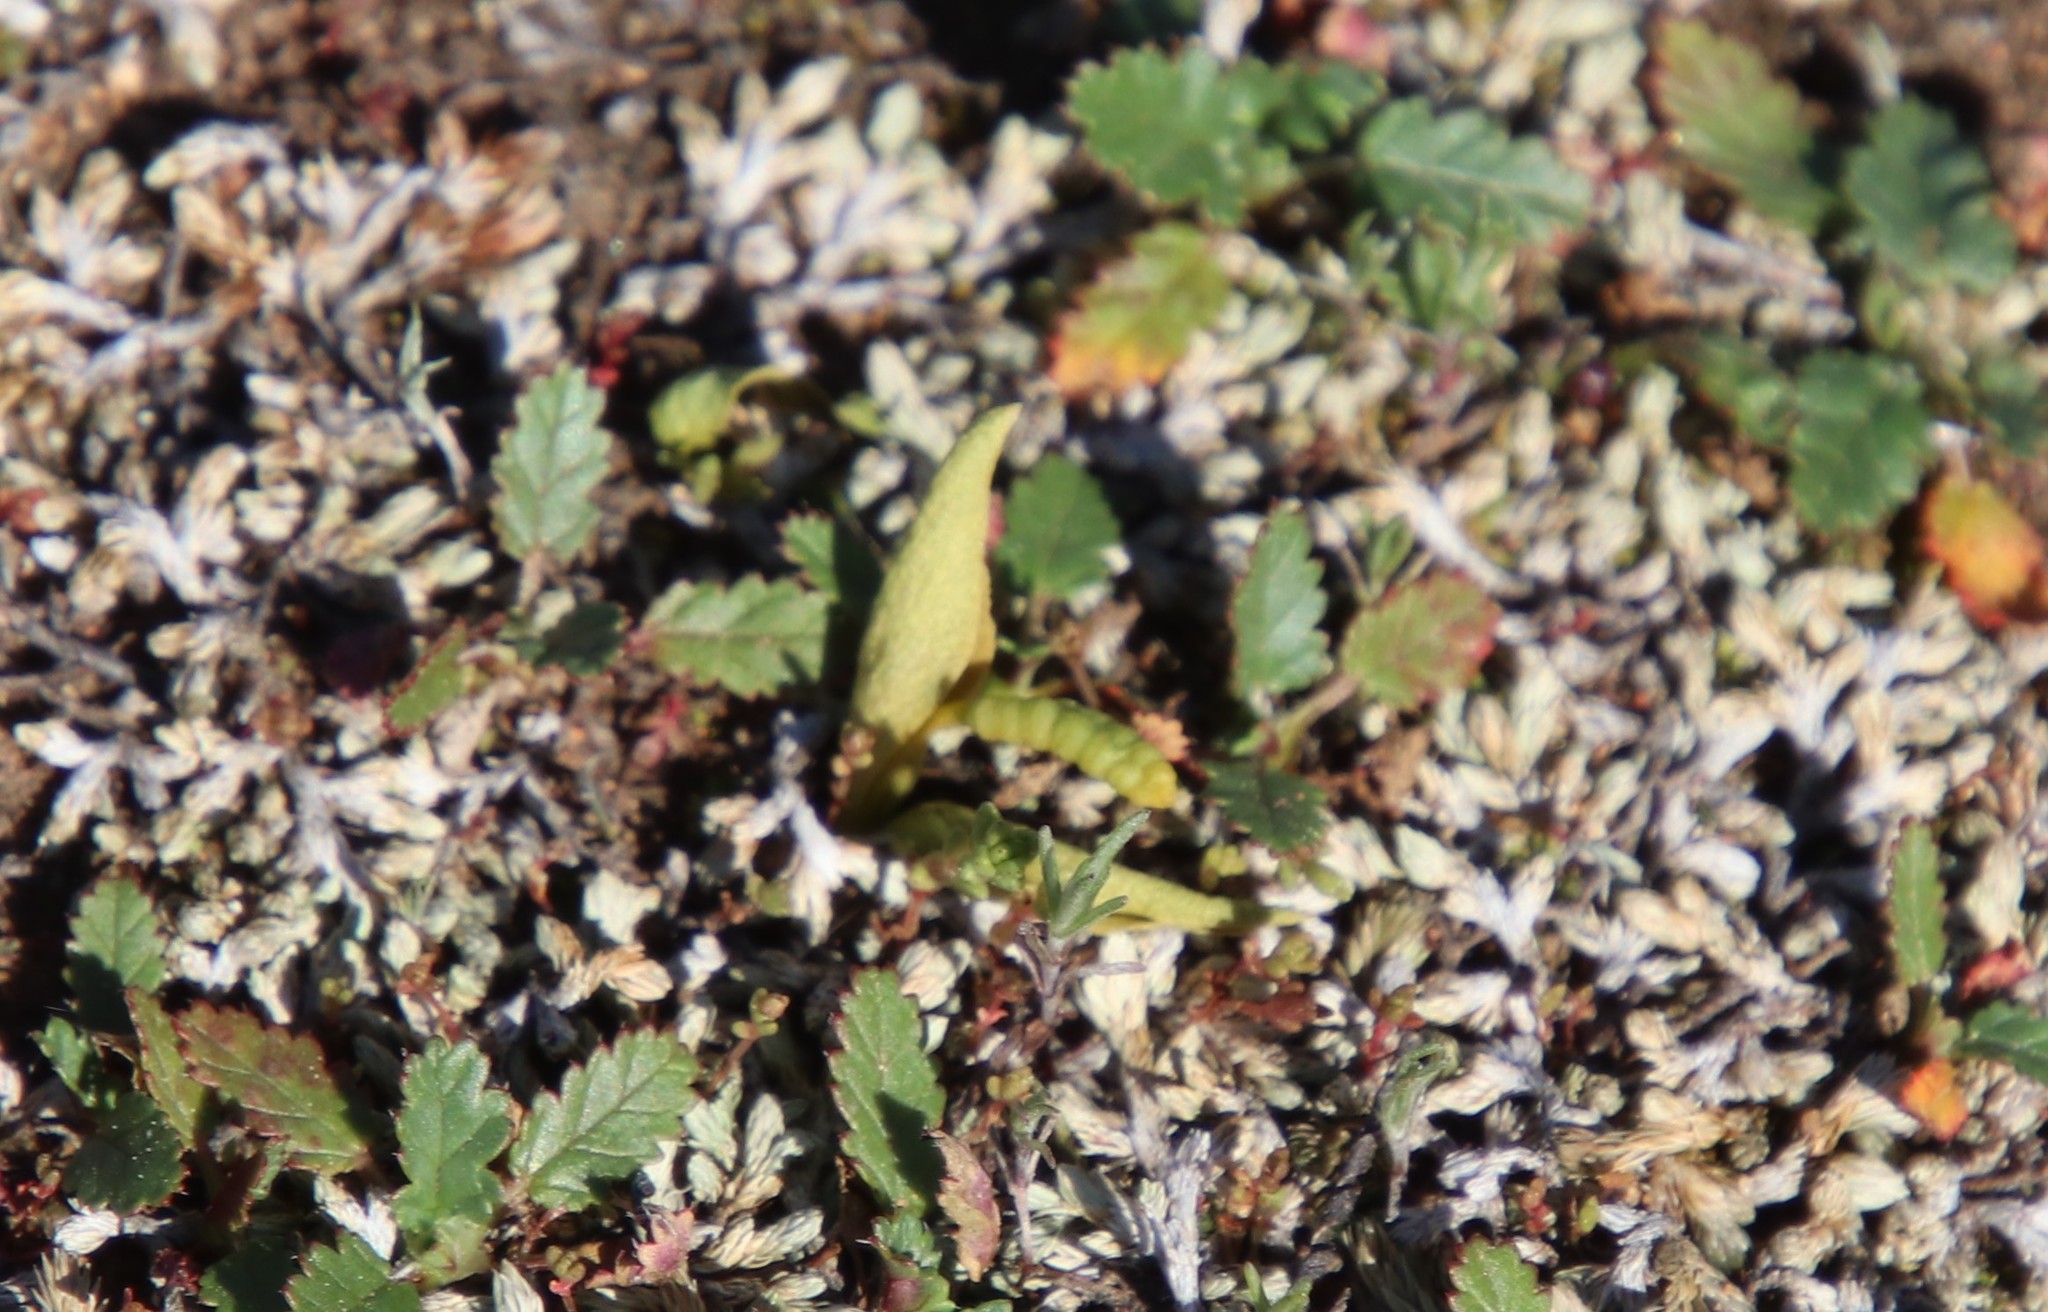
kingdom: Plantae
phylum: Tracheophyta
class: Polypodiopsida
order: Ophioglossales
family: Ophioglossaceae
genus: Ophioglossum
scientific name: Ophioglossum californicum
